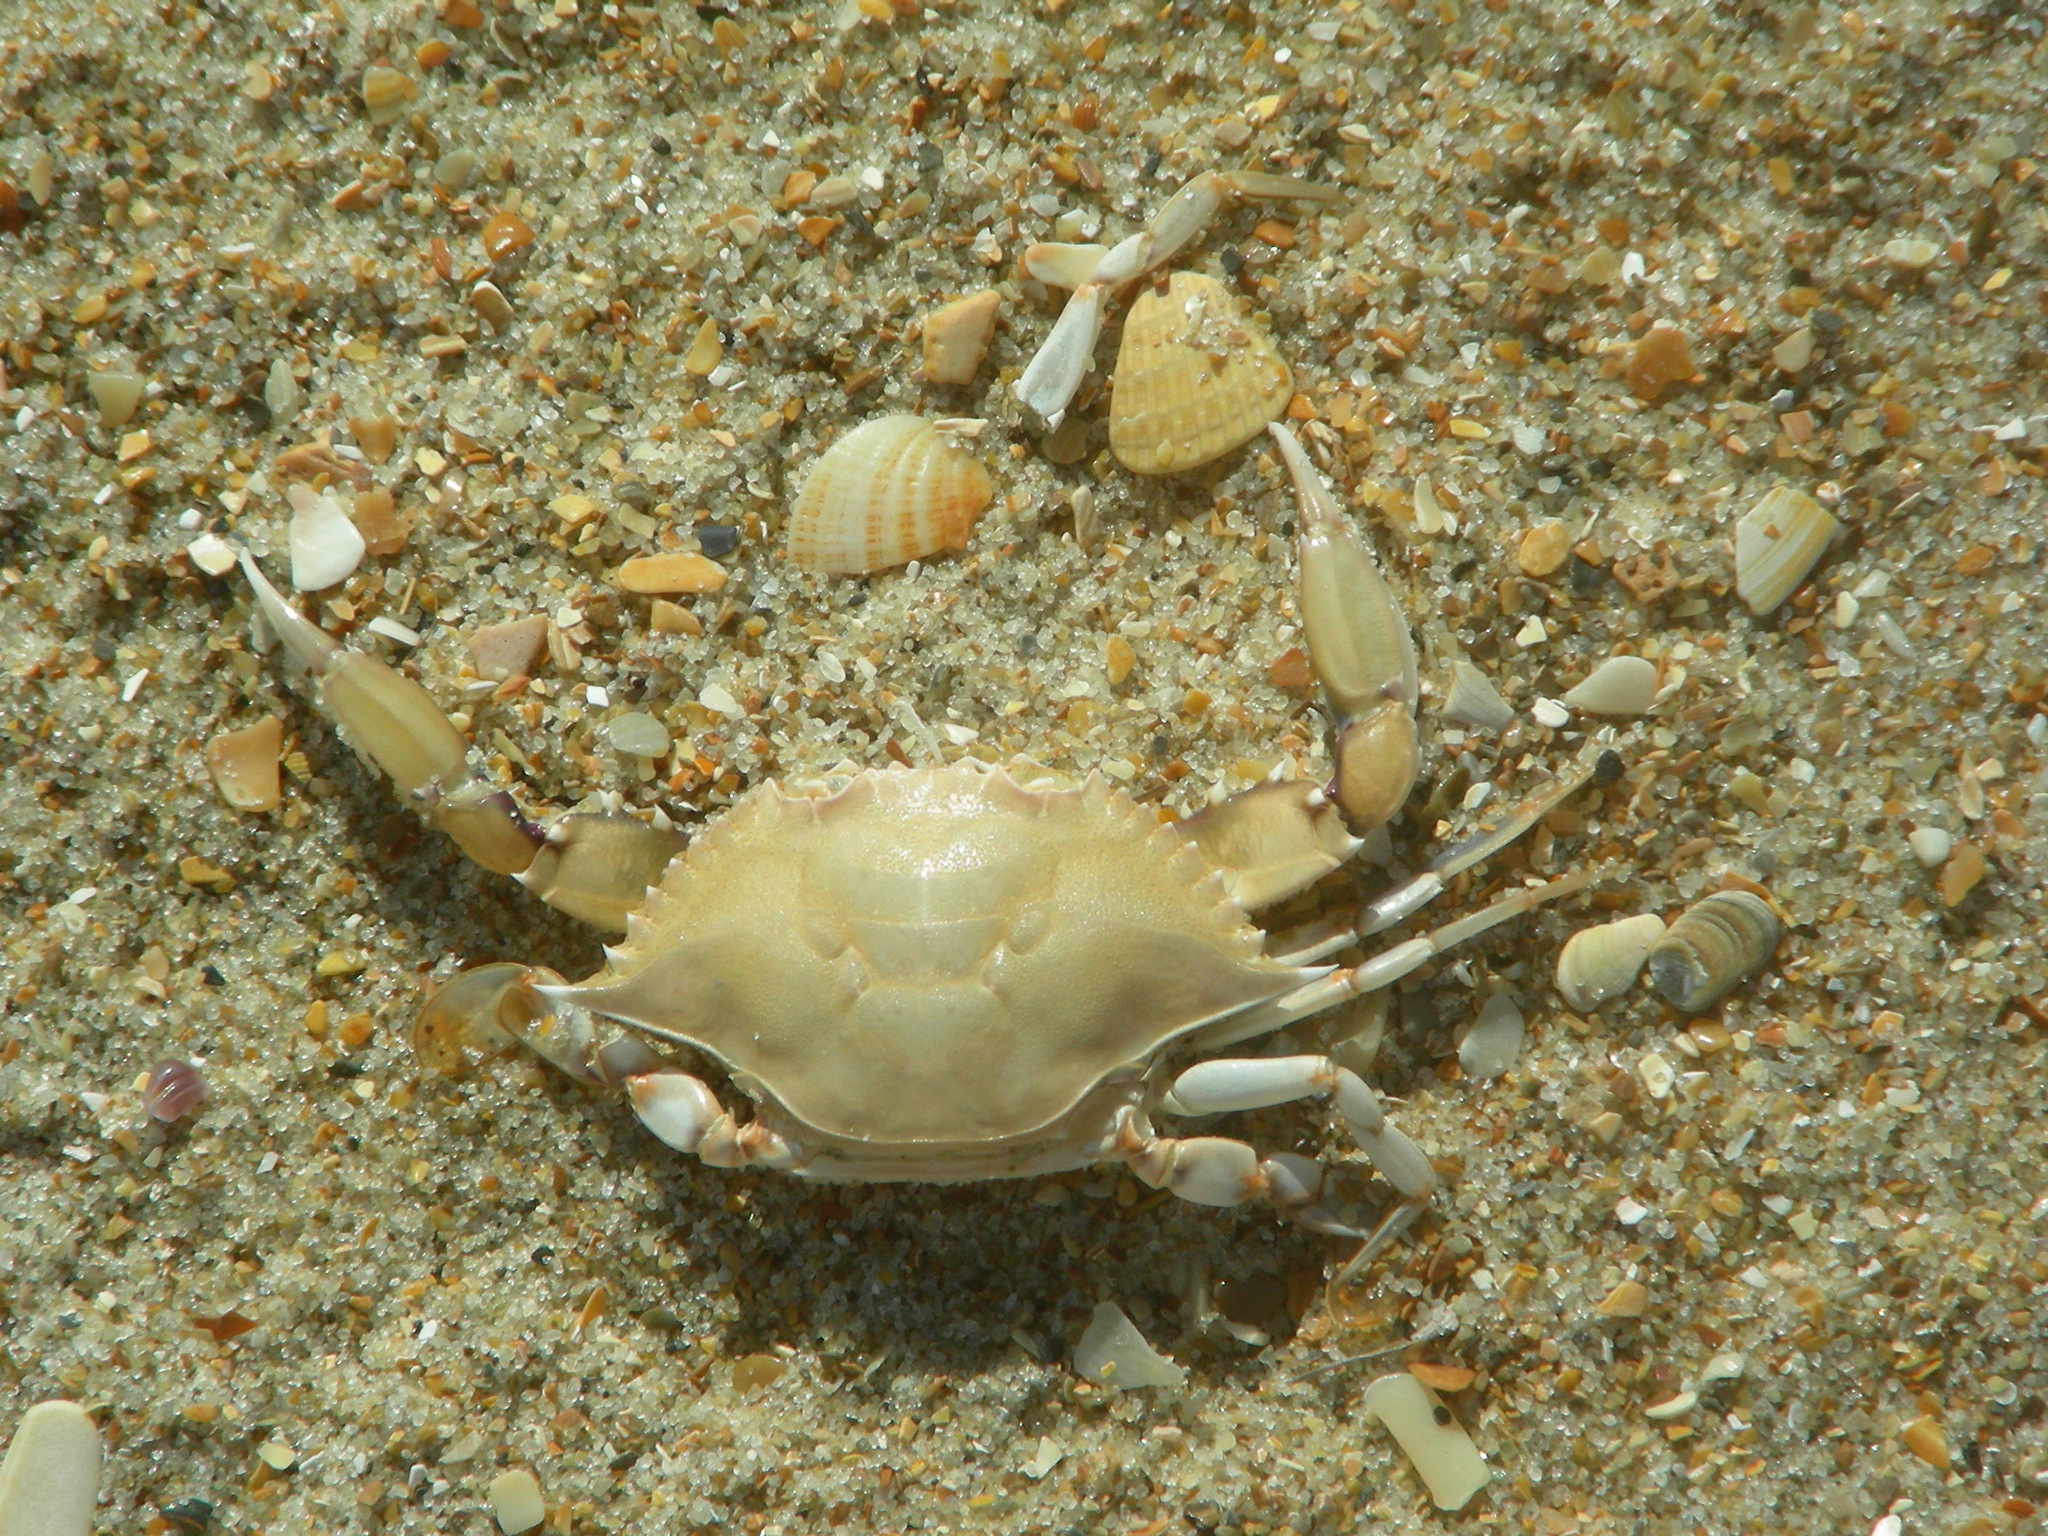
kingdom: Animalia
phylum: Arthropoda
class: Malacostraca
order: Decapoda
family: Portunidae
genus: Callinectes
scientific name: Callinectes ornatus
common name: Ornate crab
